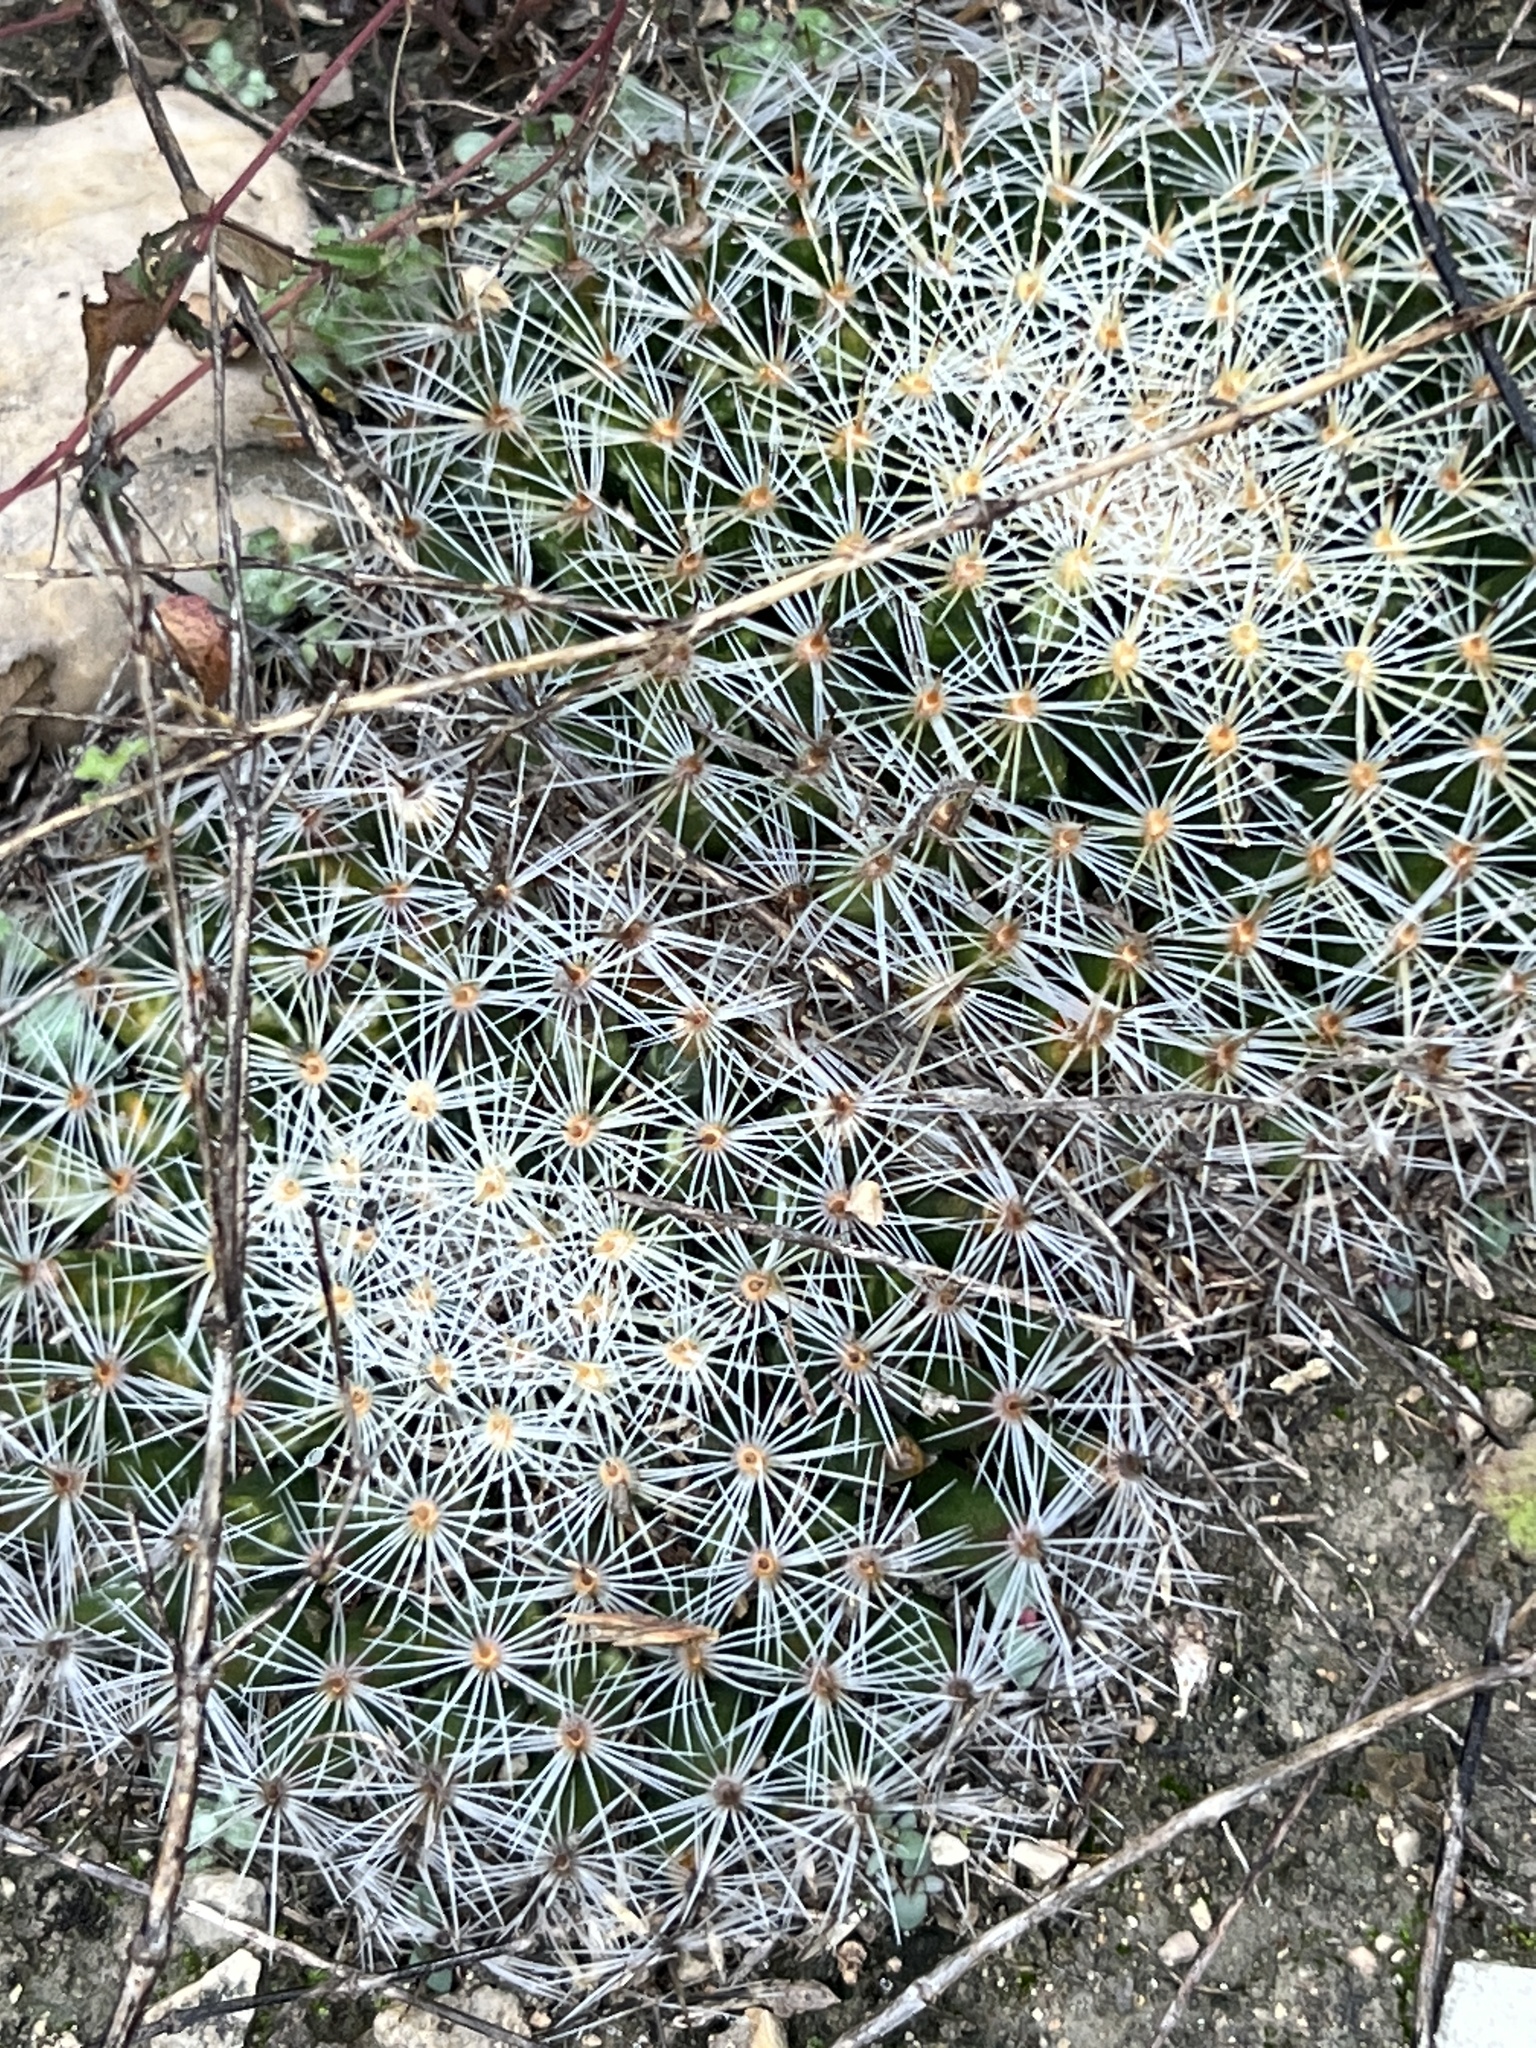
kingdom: Plantae
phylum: Tracheophyta
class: Magnoliopsida
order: Caryophyllales
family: Cactaceae
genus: Mammillaria
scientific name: Mammillaria heyderi
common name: Little nipple cactus
